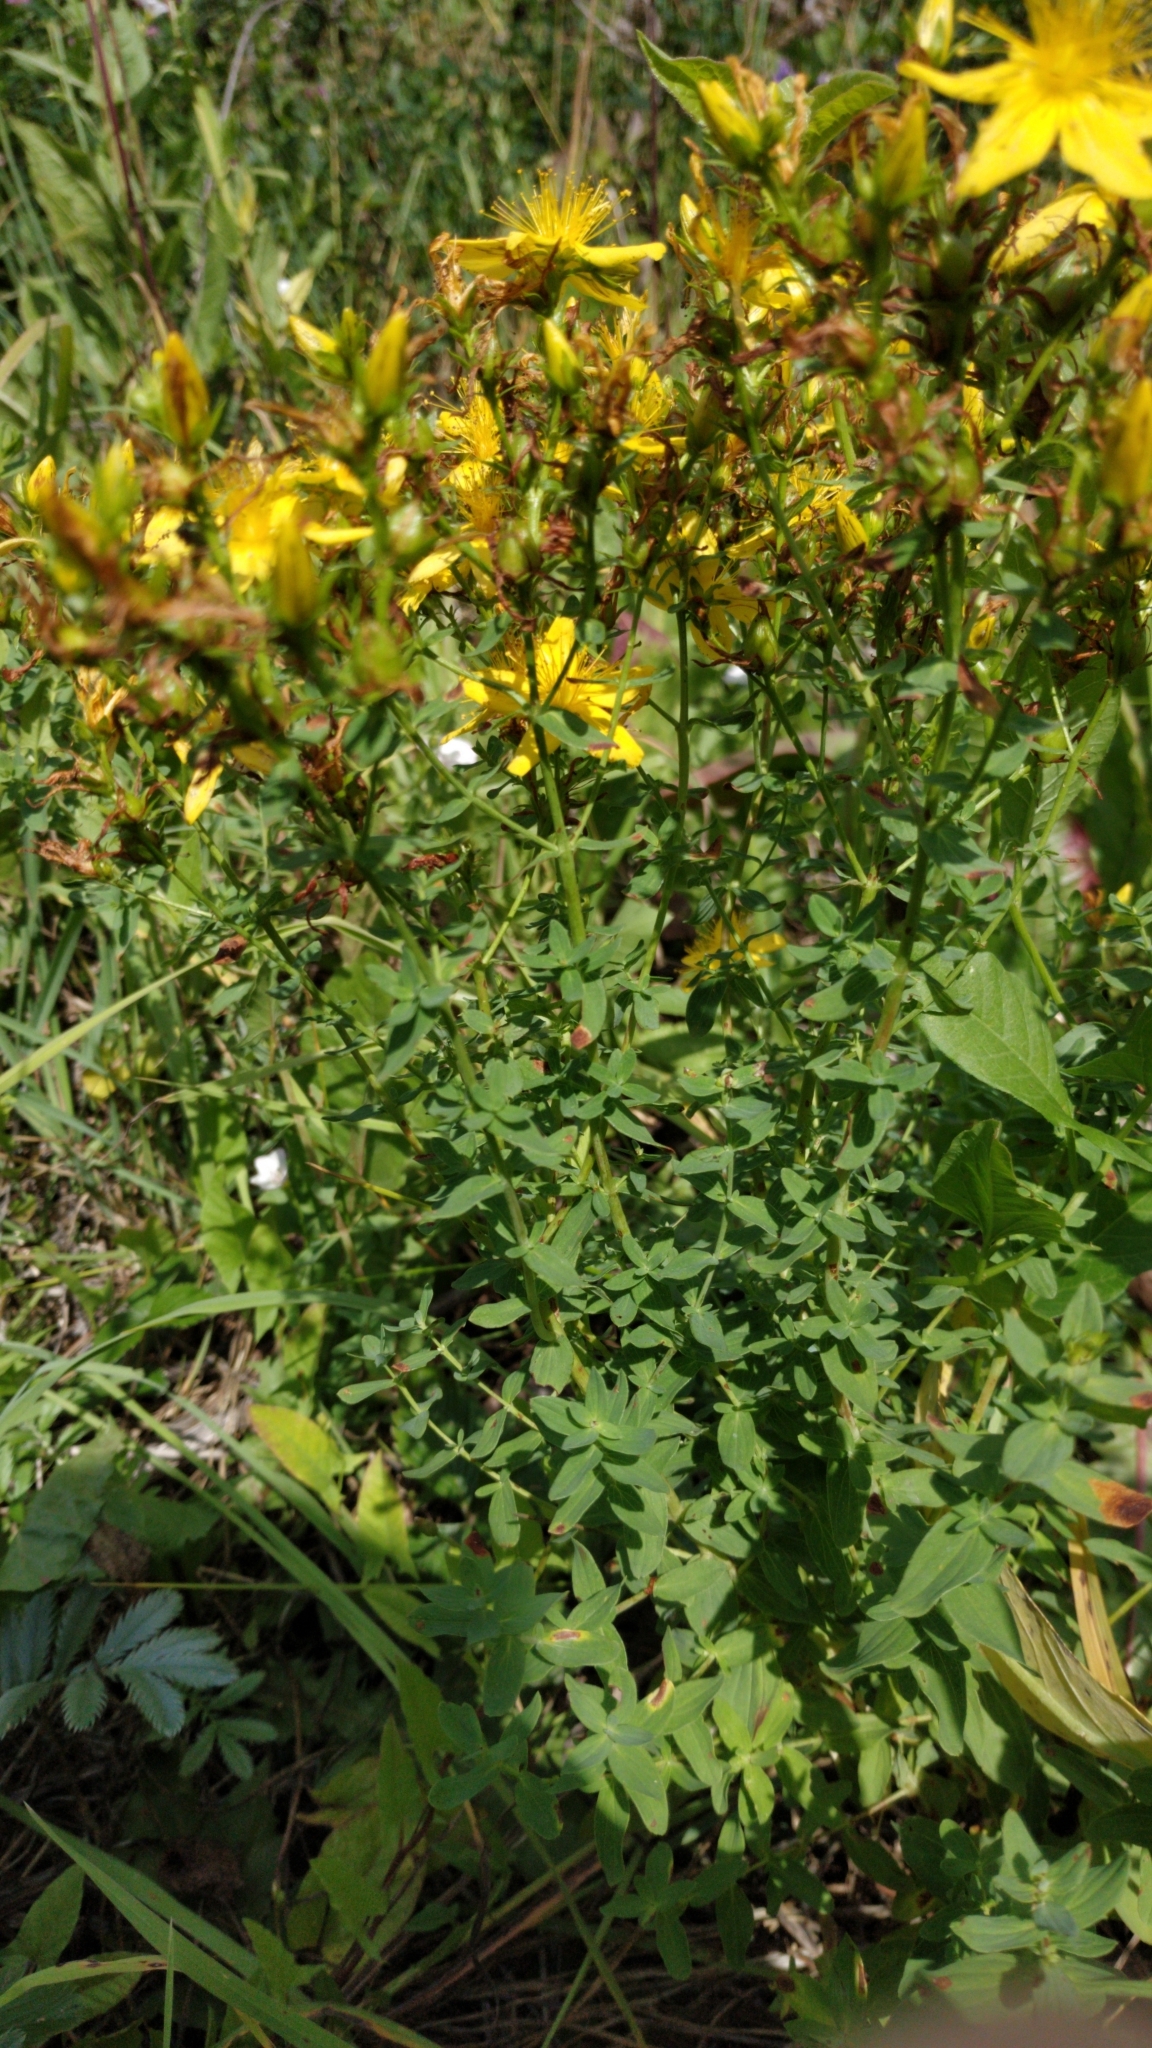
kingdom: Plantae
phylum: Tracheophyta
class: Magnoliopsida
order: Malpighiales
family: Hypericaceae
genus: Hypericum
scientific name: Hypericum perforatum
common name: Common st. johnswort
